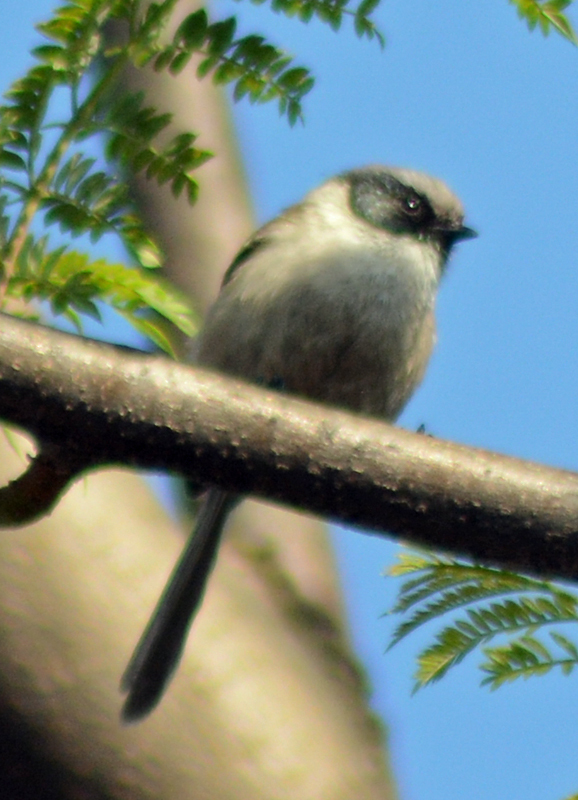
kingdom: Animalia
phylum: Chordata
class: Aves
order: Passeriformes
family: Aegithalidae
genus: Psaltriparus
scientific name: Psaltriparus minimus
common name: American bushtit
